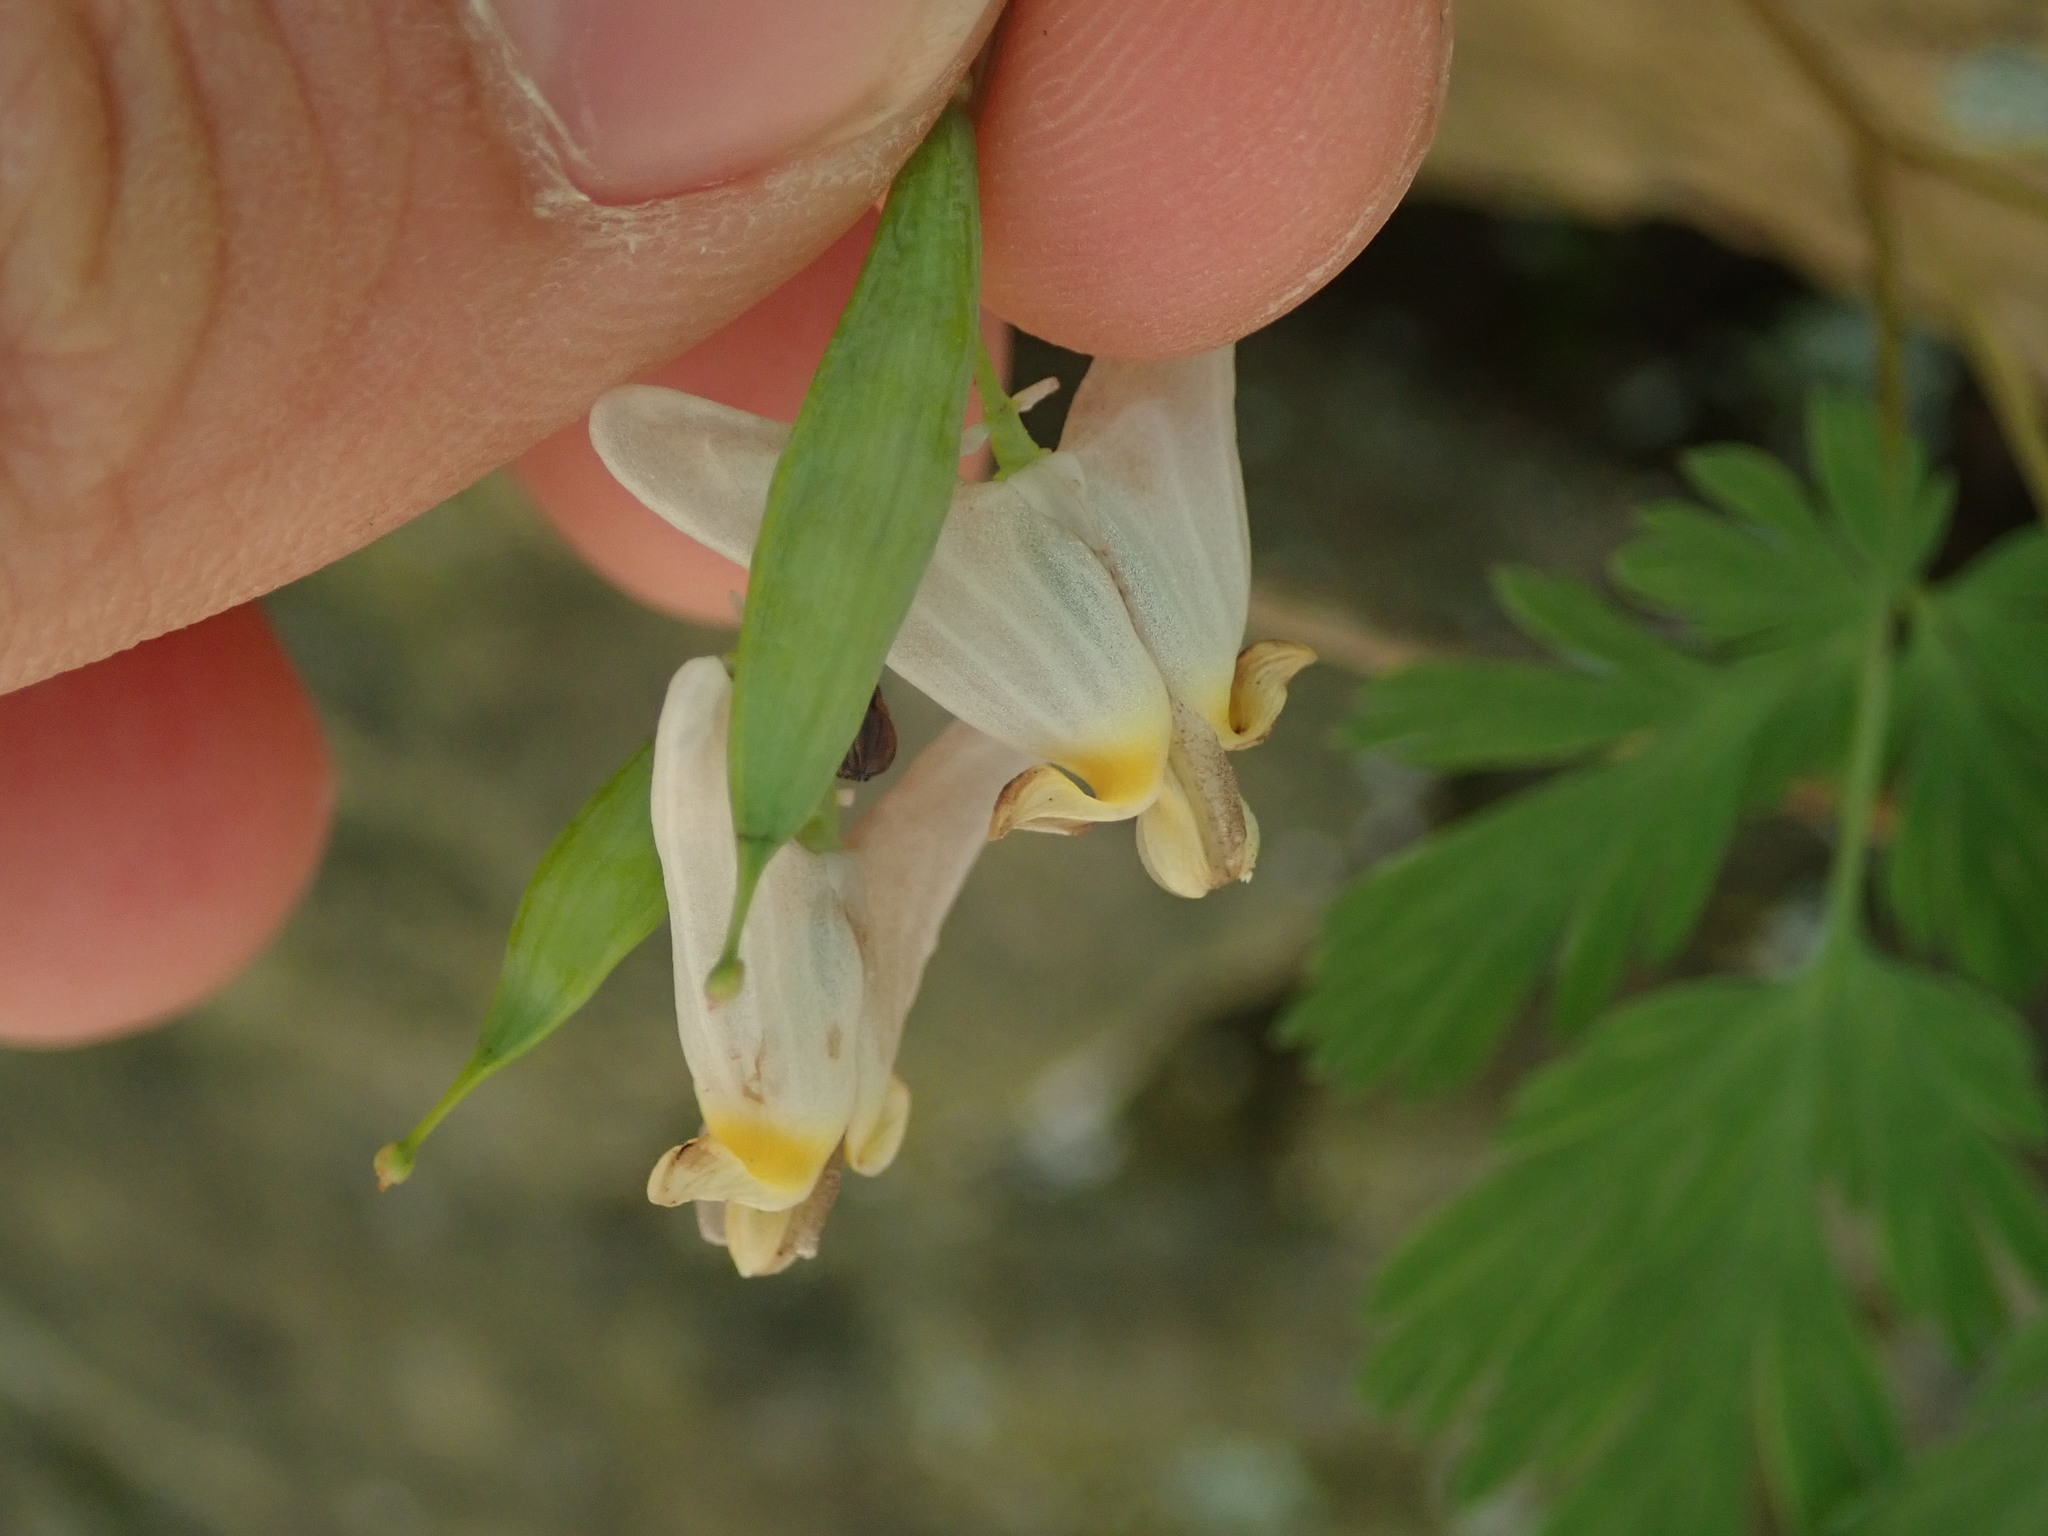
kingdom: Plantae
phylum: Tracheophyta
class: Magnoliopsida
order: Ranunculales
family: Papaveraceae
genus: Dicentra
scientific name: Dicentra cucullaria
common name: Dutchman's breeches
